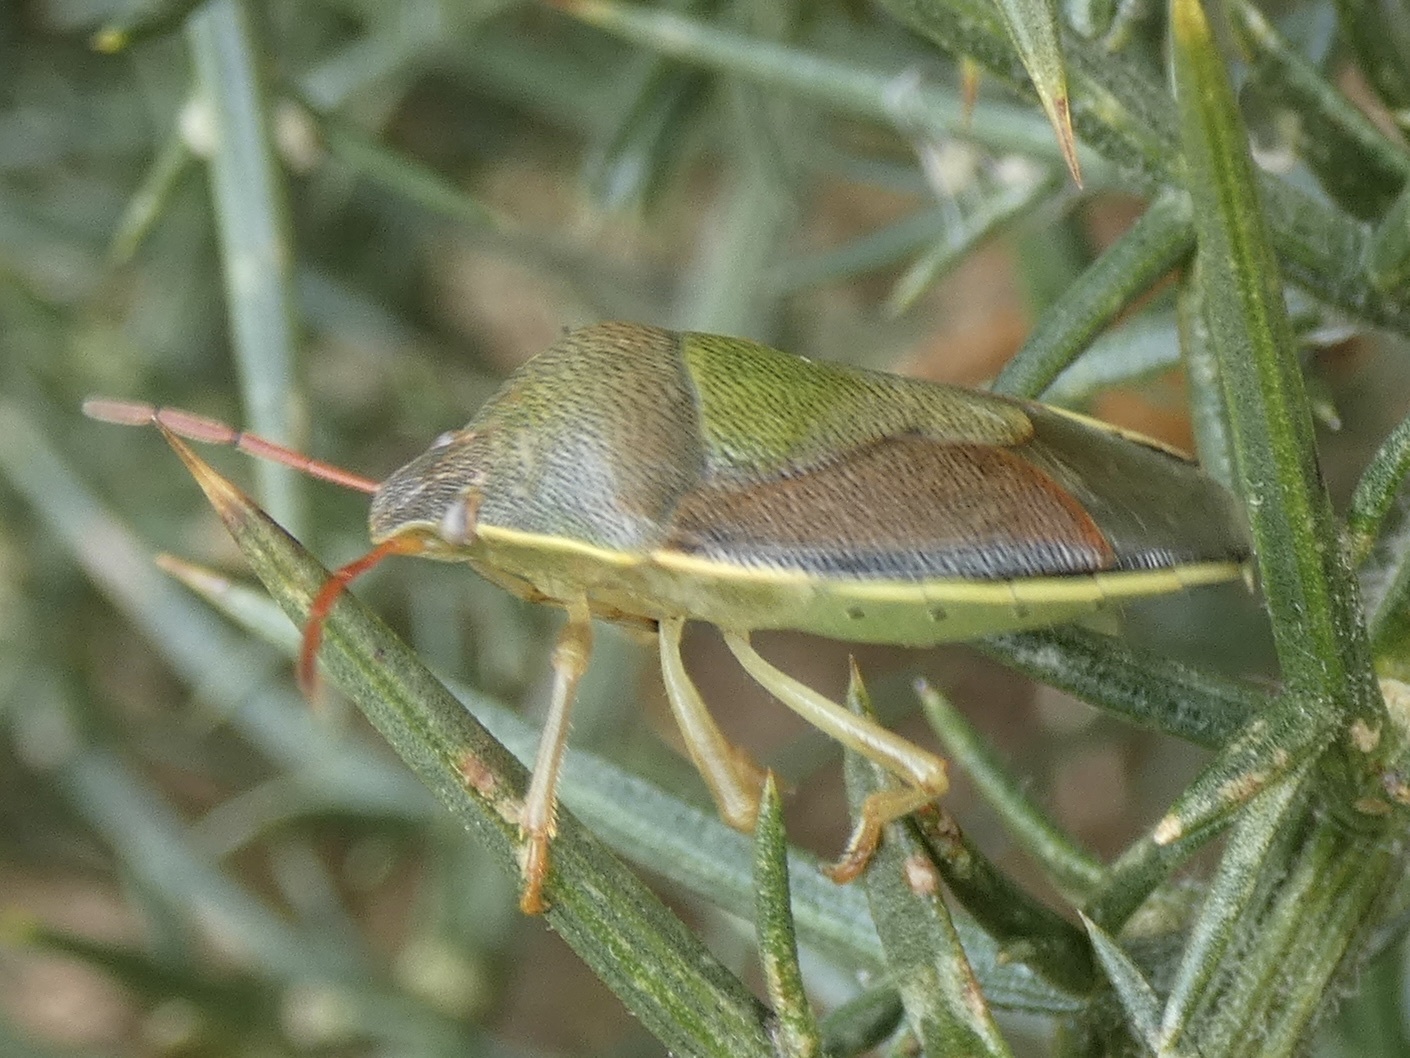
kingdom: Animalia
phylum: Arthropoda
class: Insecta
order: Hemiptera
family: Pentatomidae
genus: Piezodorus
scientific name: Piezodorus lituratus
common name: Stink bug
